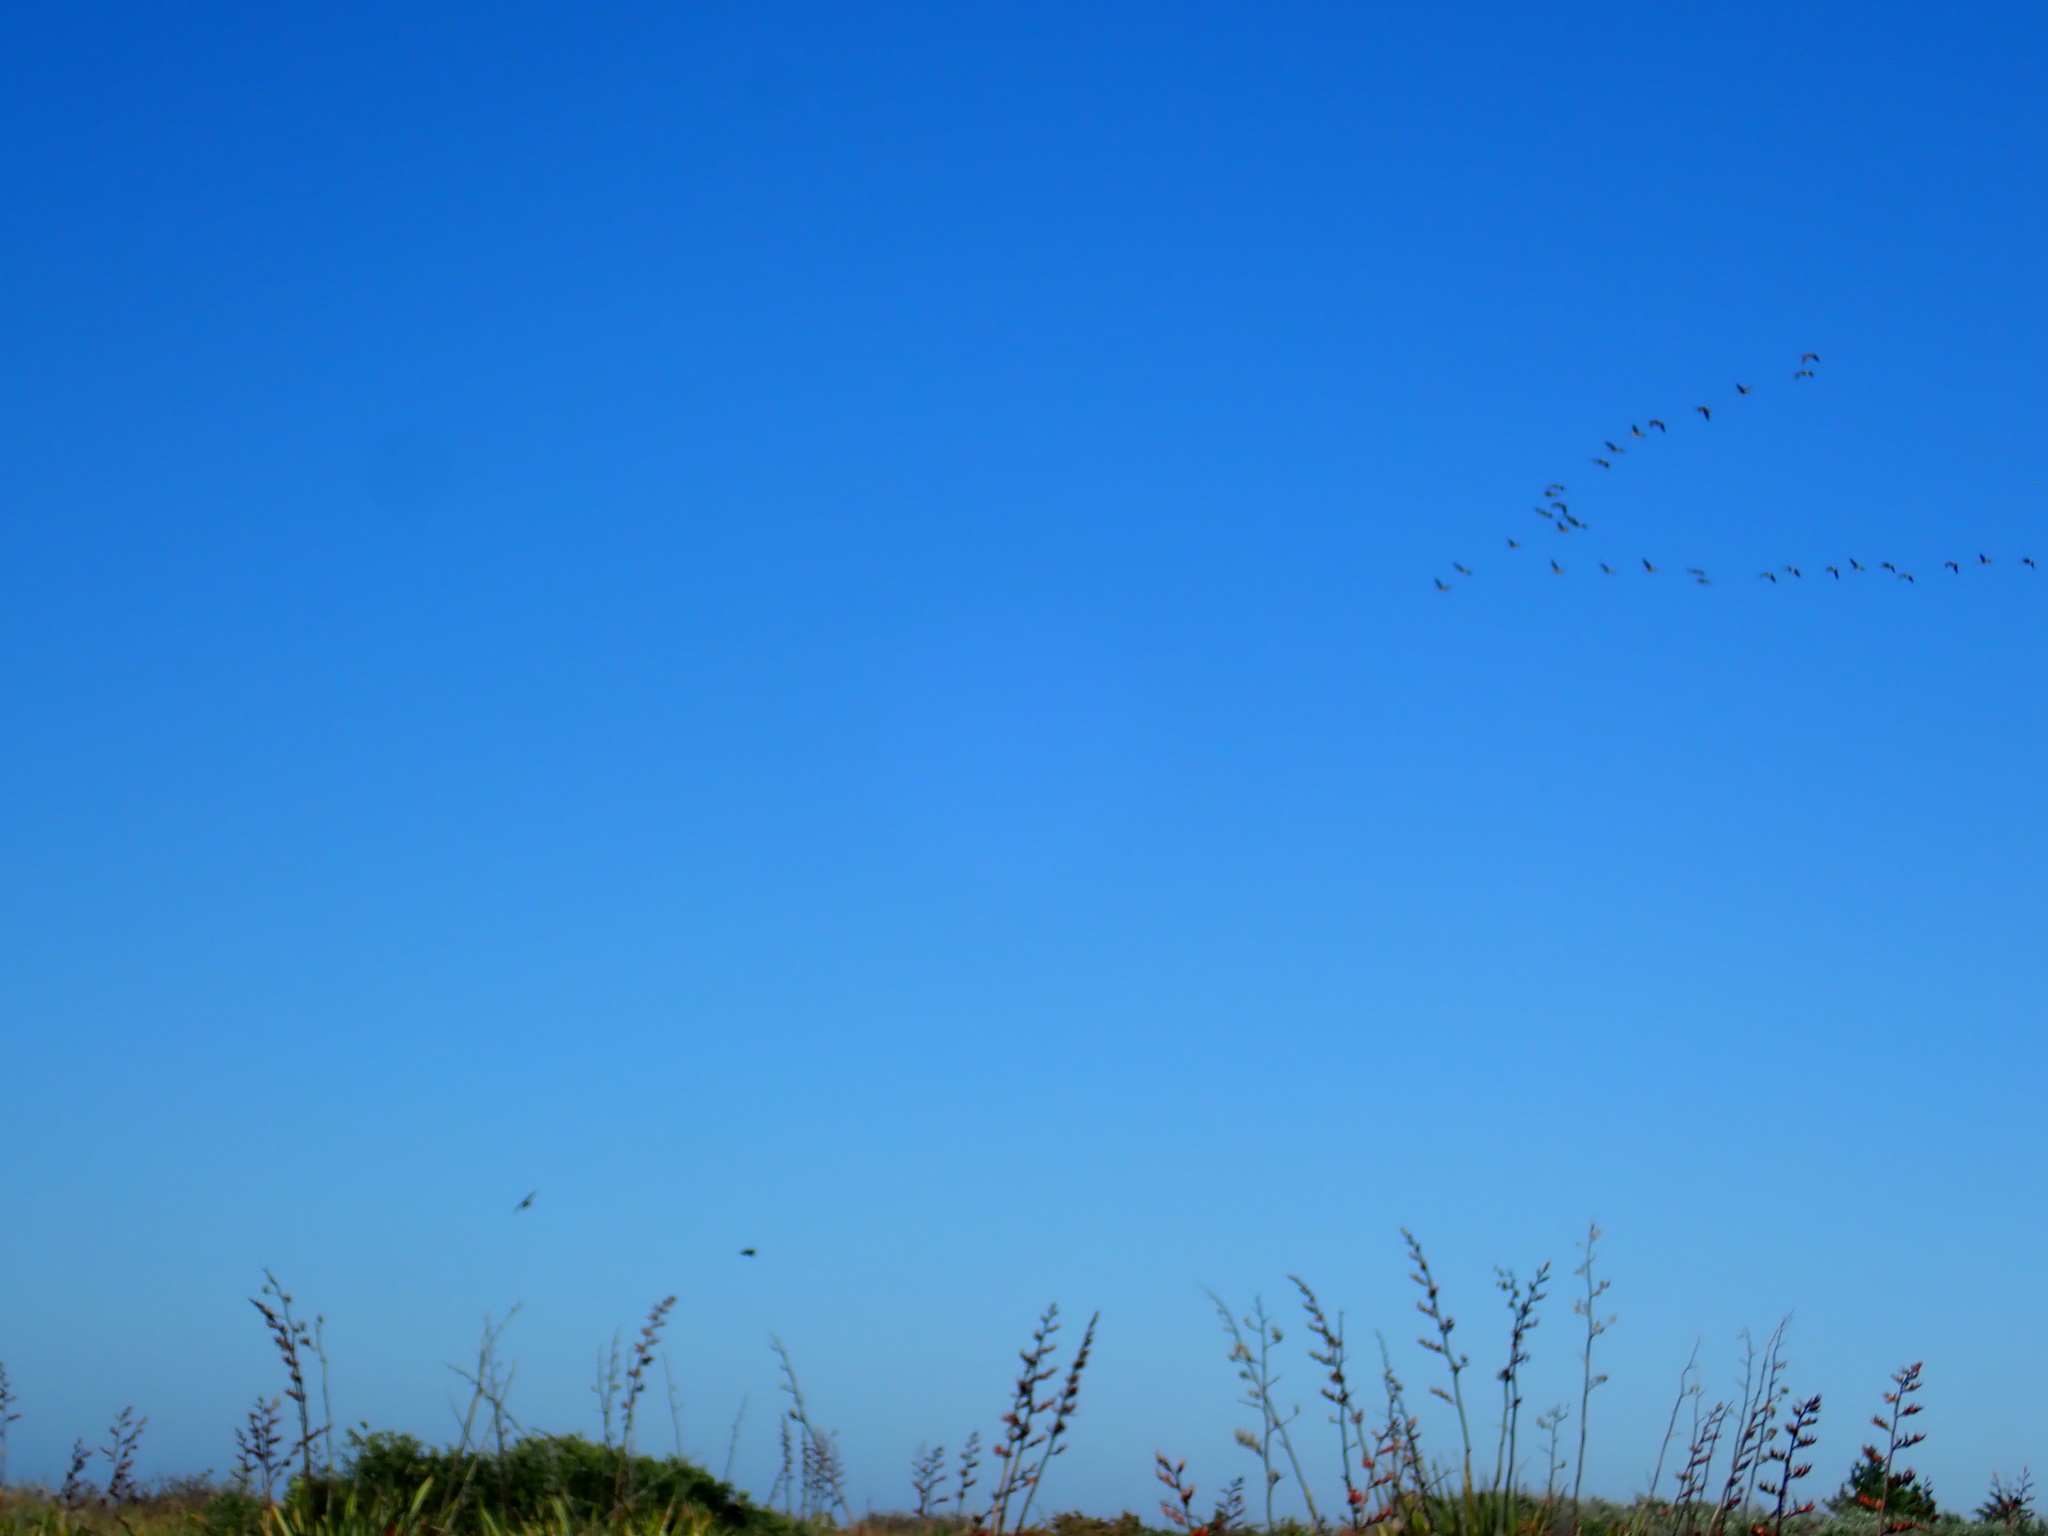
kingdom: Animalia
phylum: Chordata
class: Aves
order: Anseriformes
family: Anatidae
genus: Branta
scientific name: Branta canadensis
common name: Canada goose
